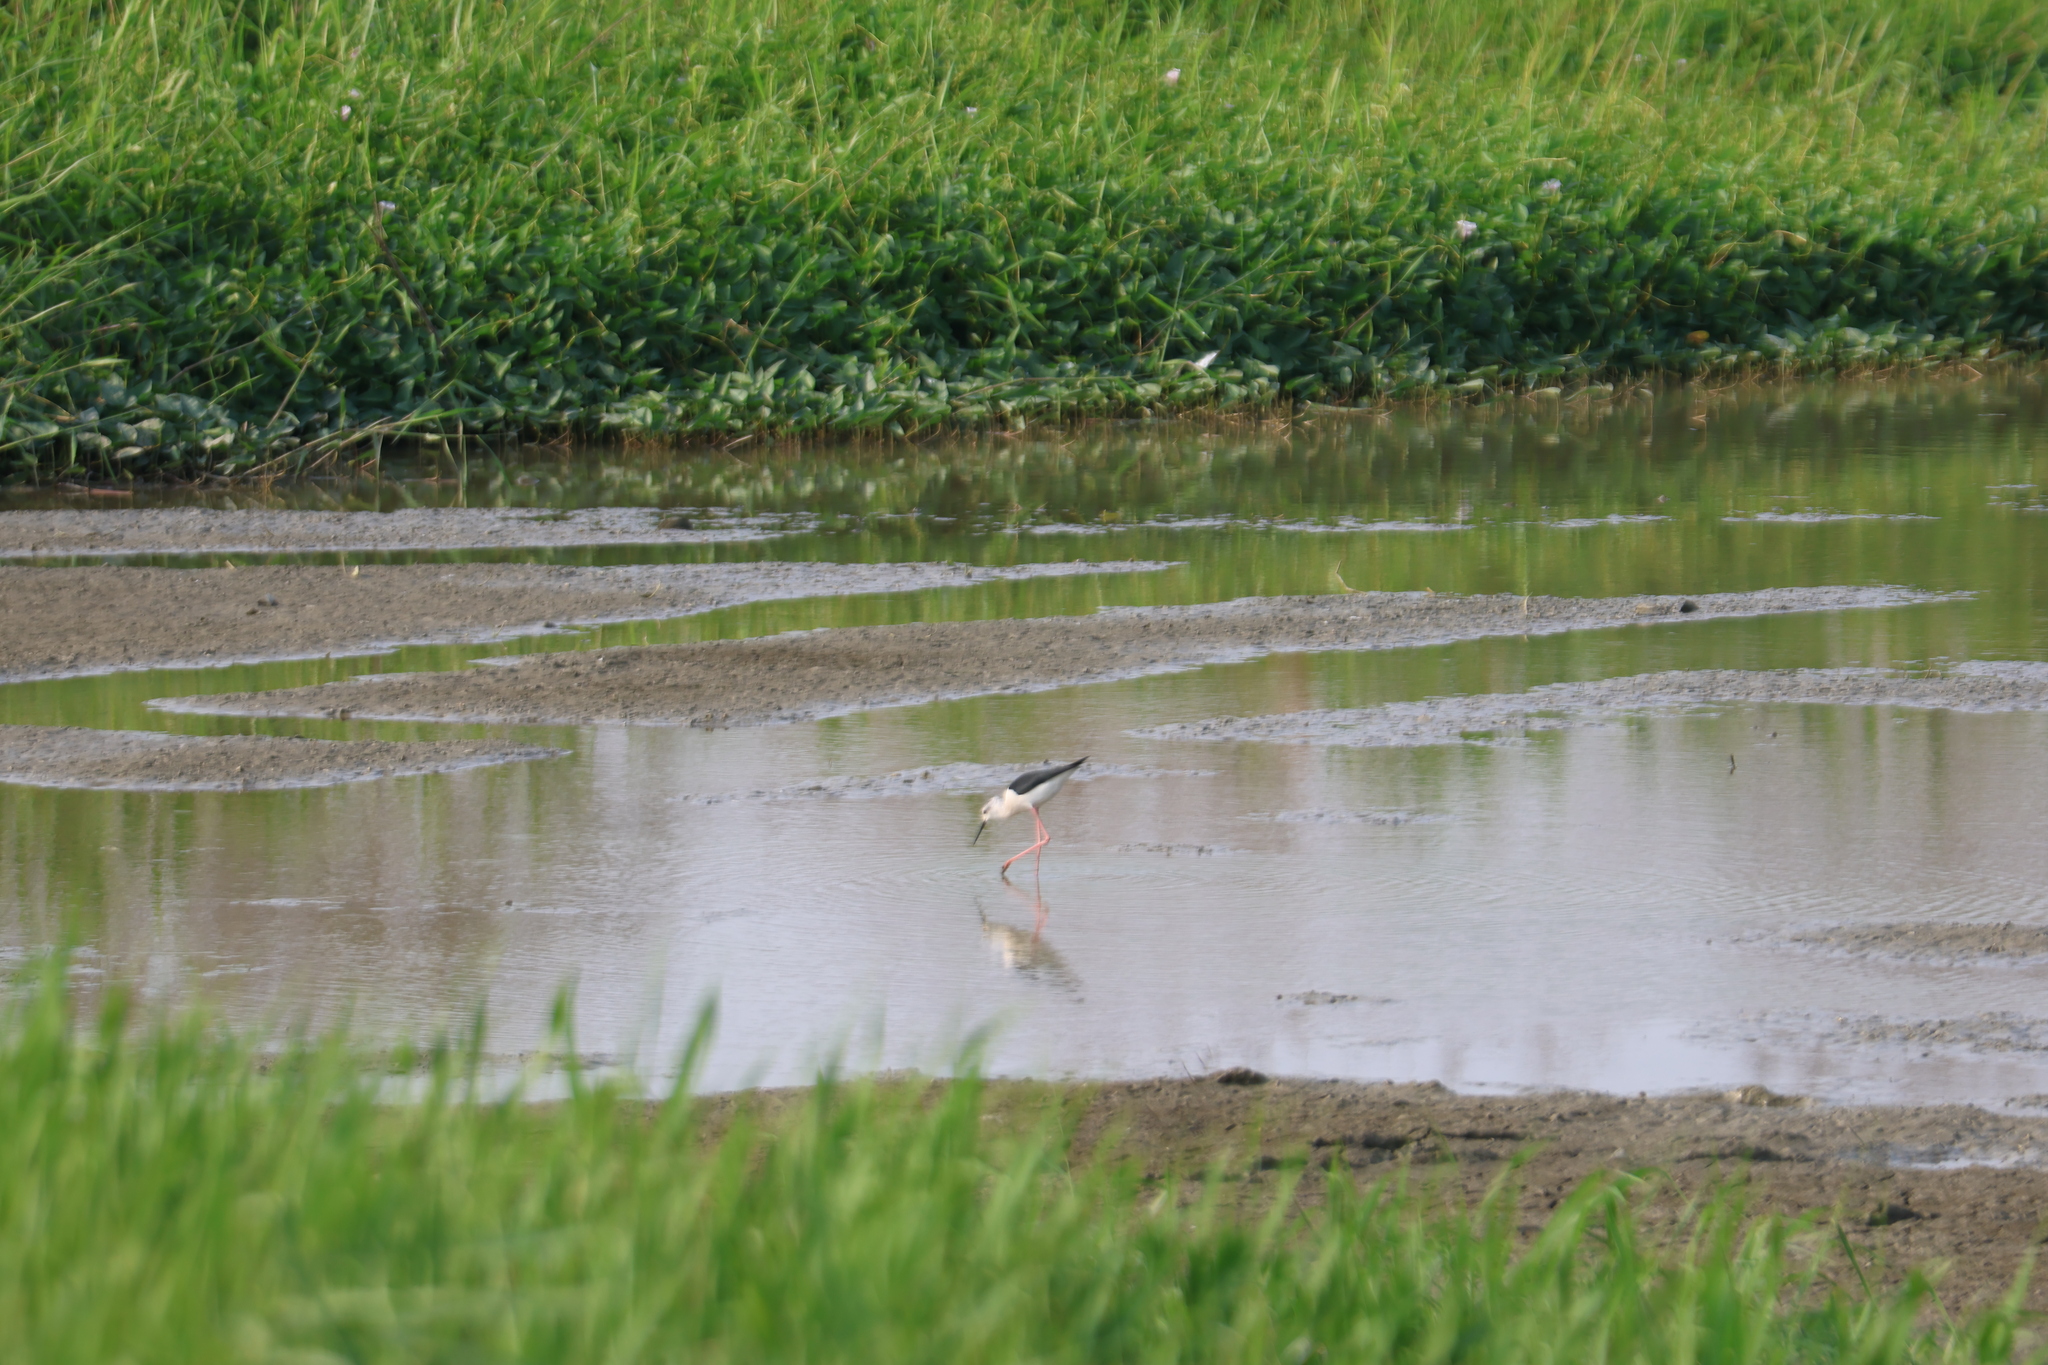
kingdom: Animalia
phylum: Chordata
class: Aves
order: Charadriiformes
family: Recurvirostridae
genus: Himantopus
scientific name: Himantopus himantopus
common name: Black-winged stilt
